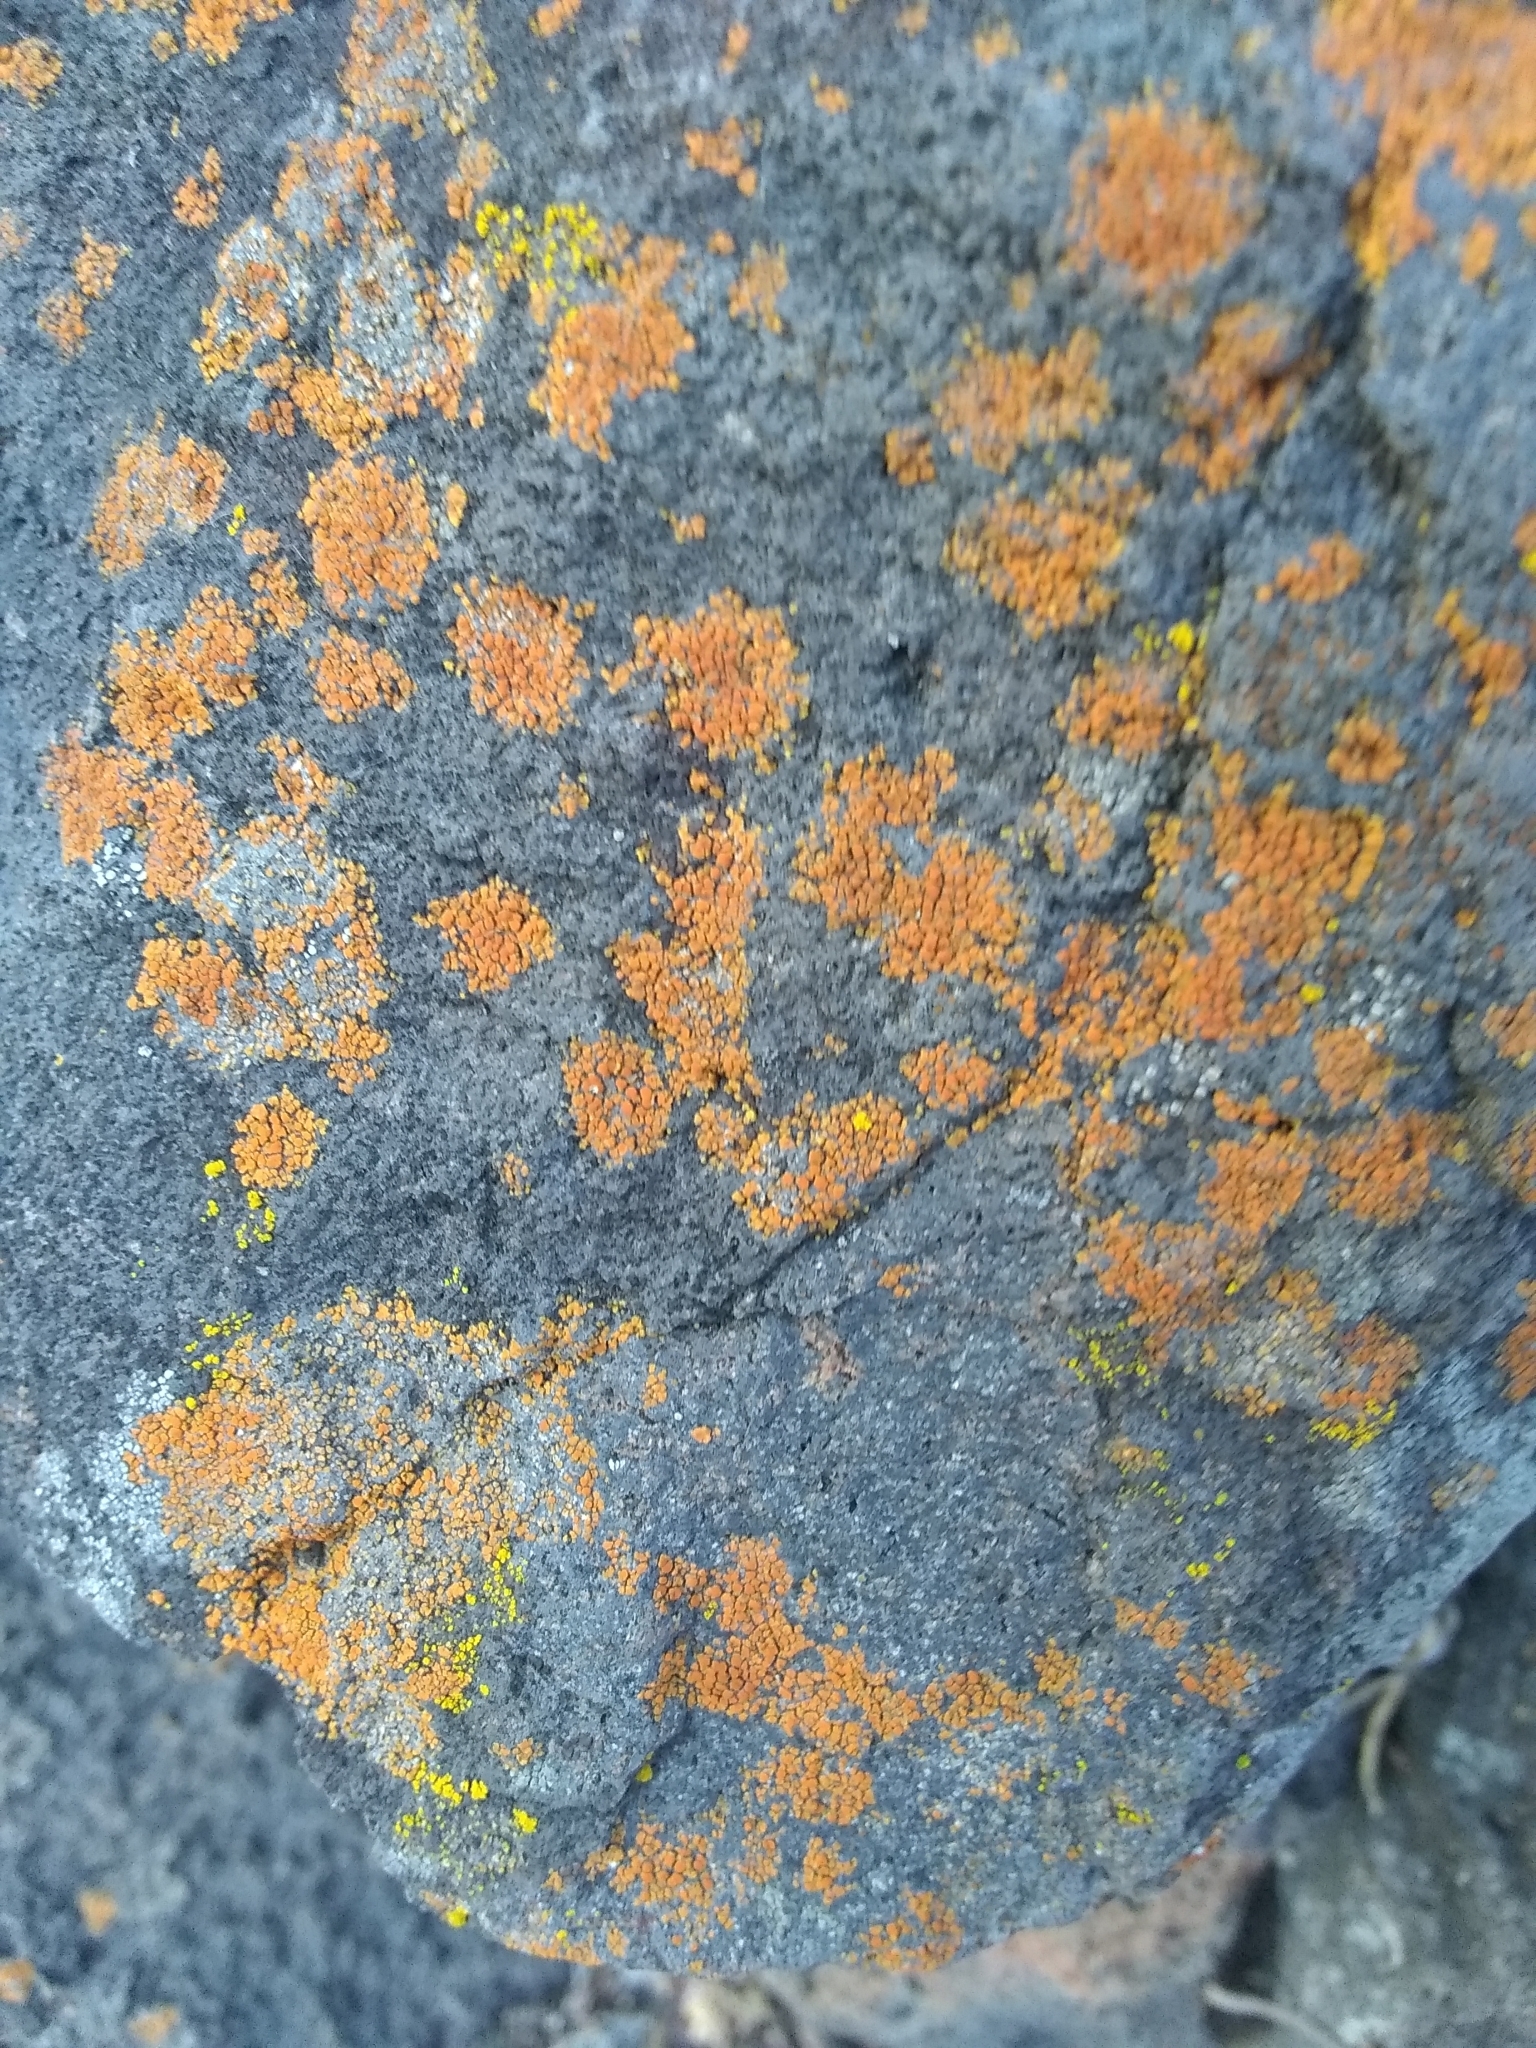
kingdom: Fungi
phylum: Ascomycota
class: Lecanoromycetes
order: Teloschistales
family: Teloschistaceae
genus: Xanthoria
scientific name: Xanthoria elegans
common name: Elegant sunburst lichen
